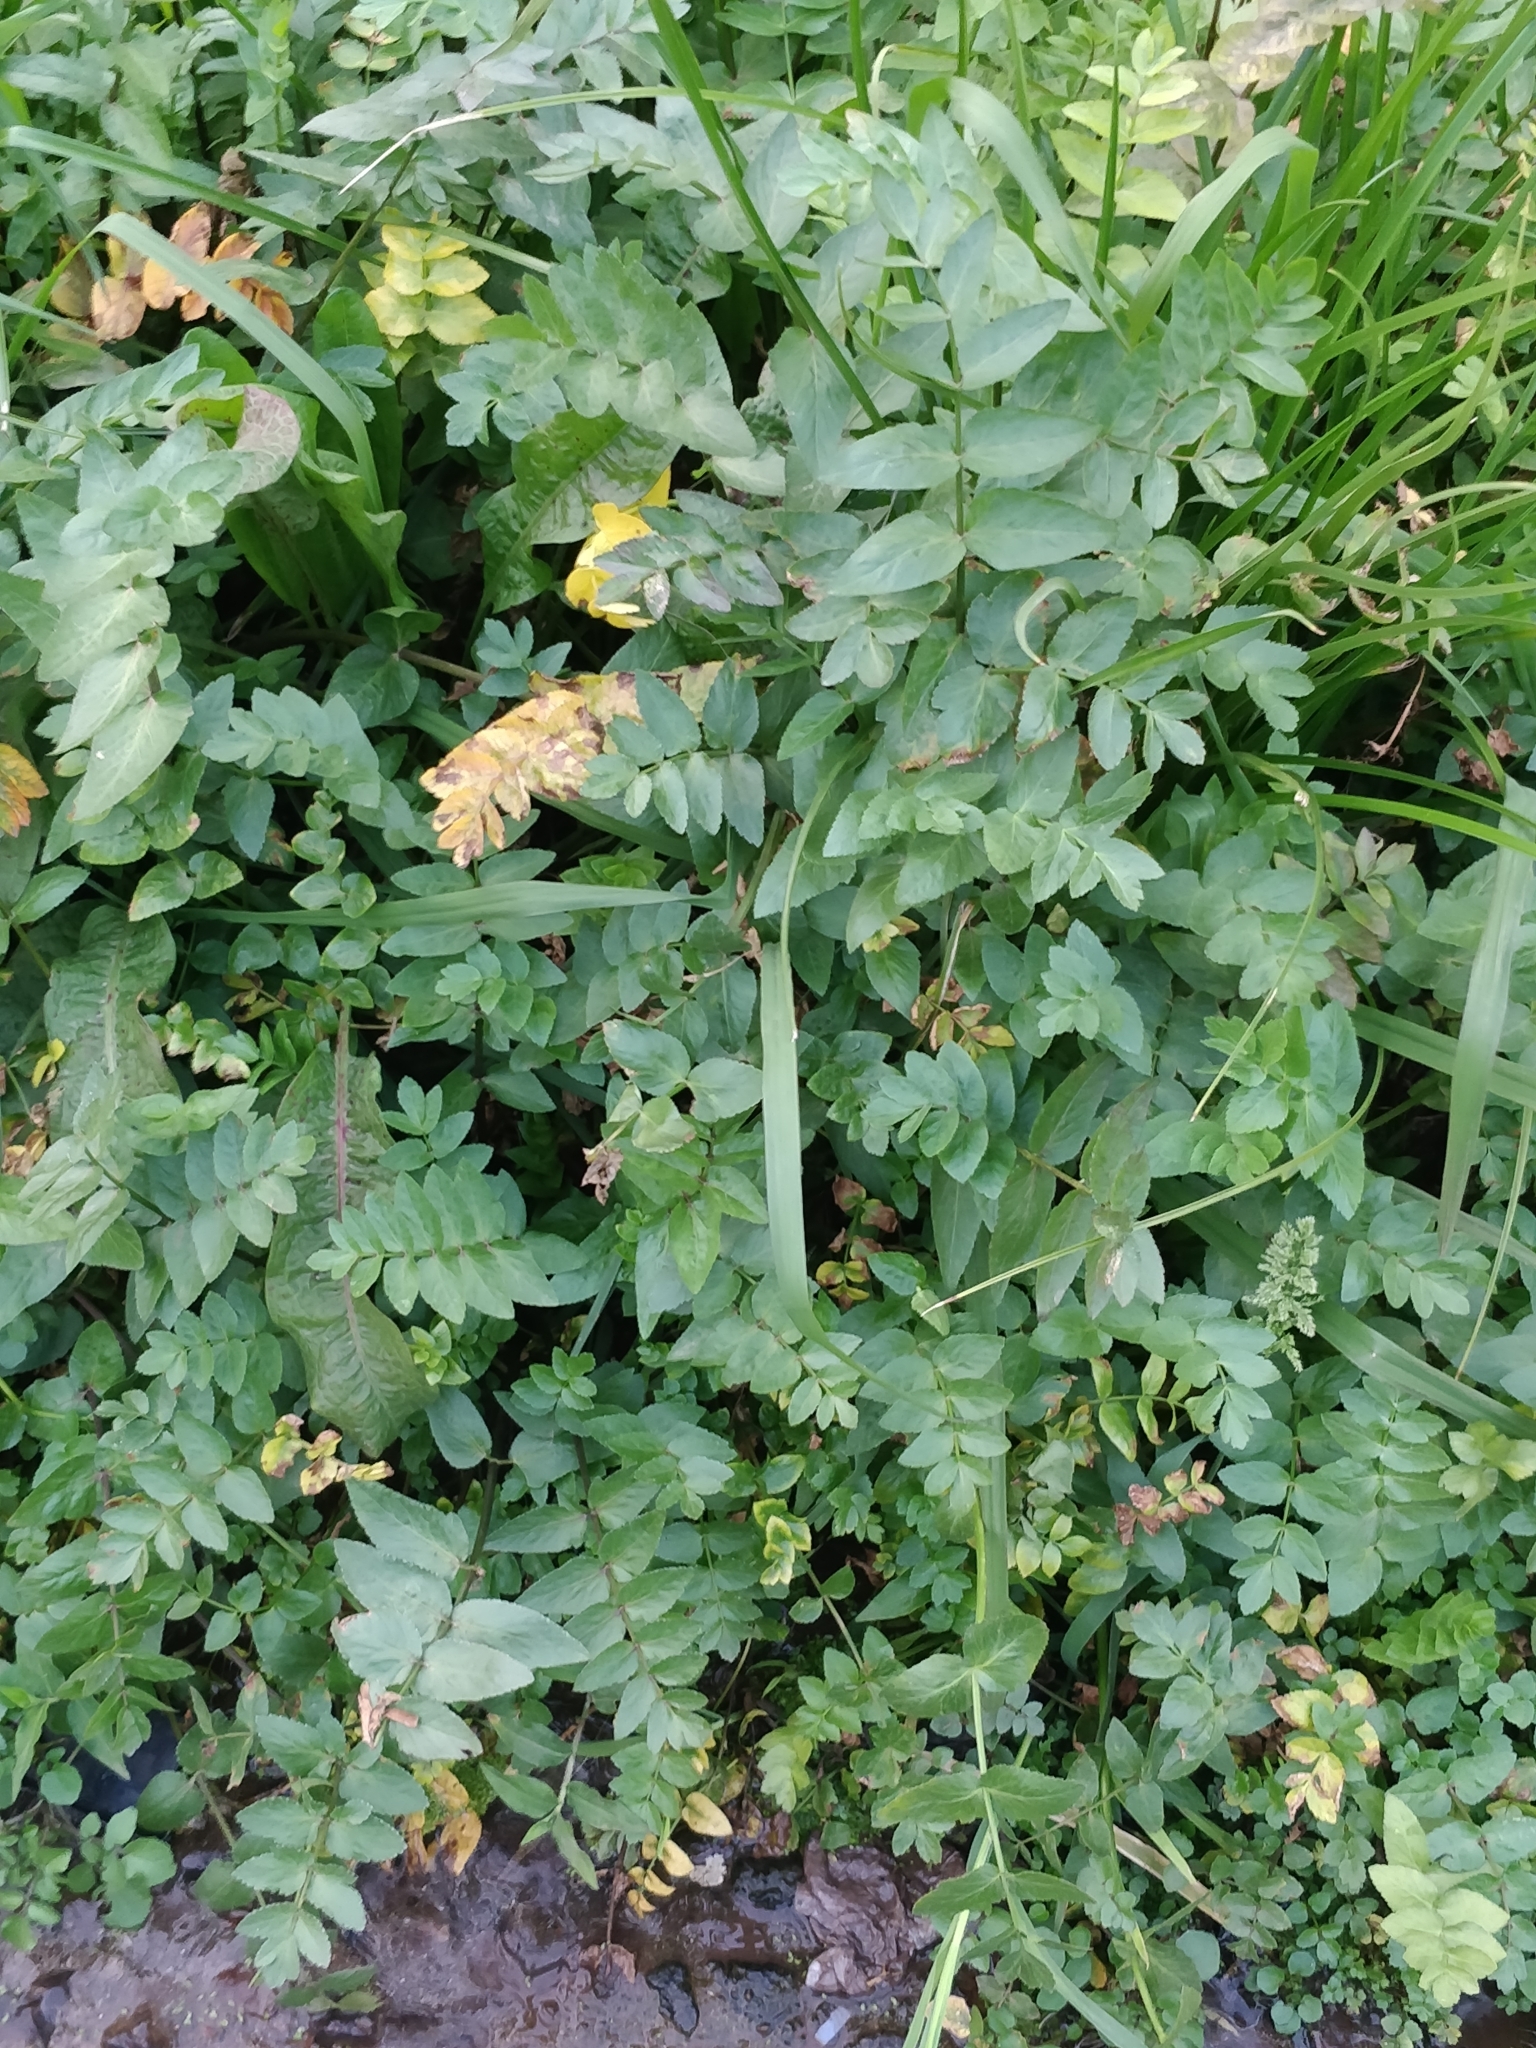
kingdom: Plantae
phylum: Tracheophyta
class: Magnoliopsida
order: Apiales
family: Apiaceae
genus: Helosciadium
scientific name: Helosciadium nodiflorum
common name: Fool's-watercress
